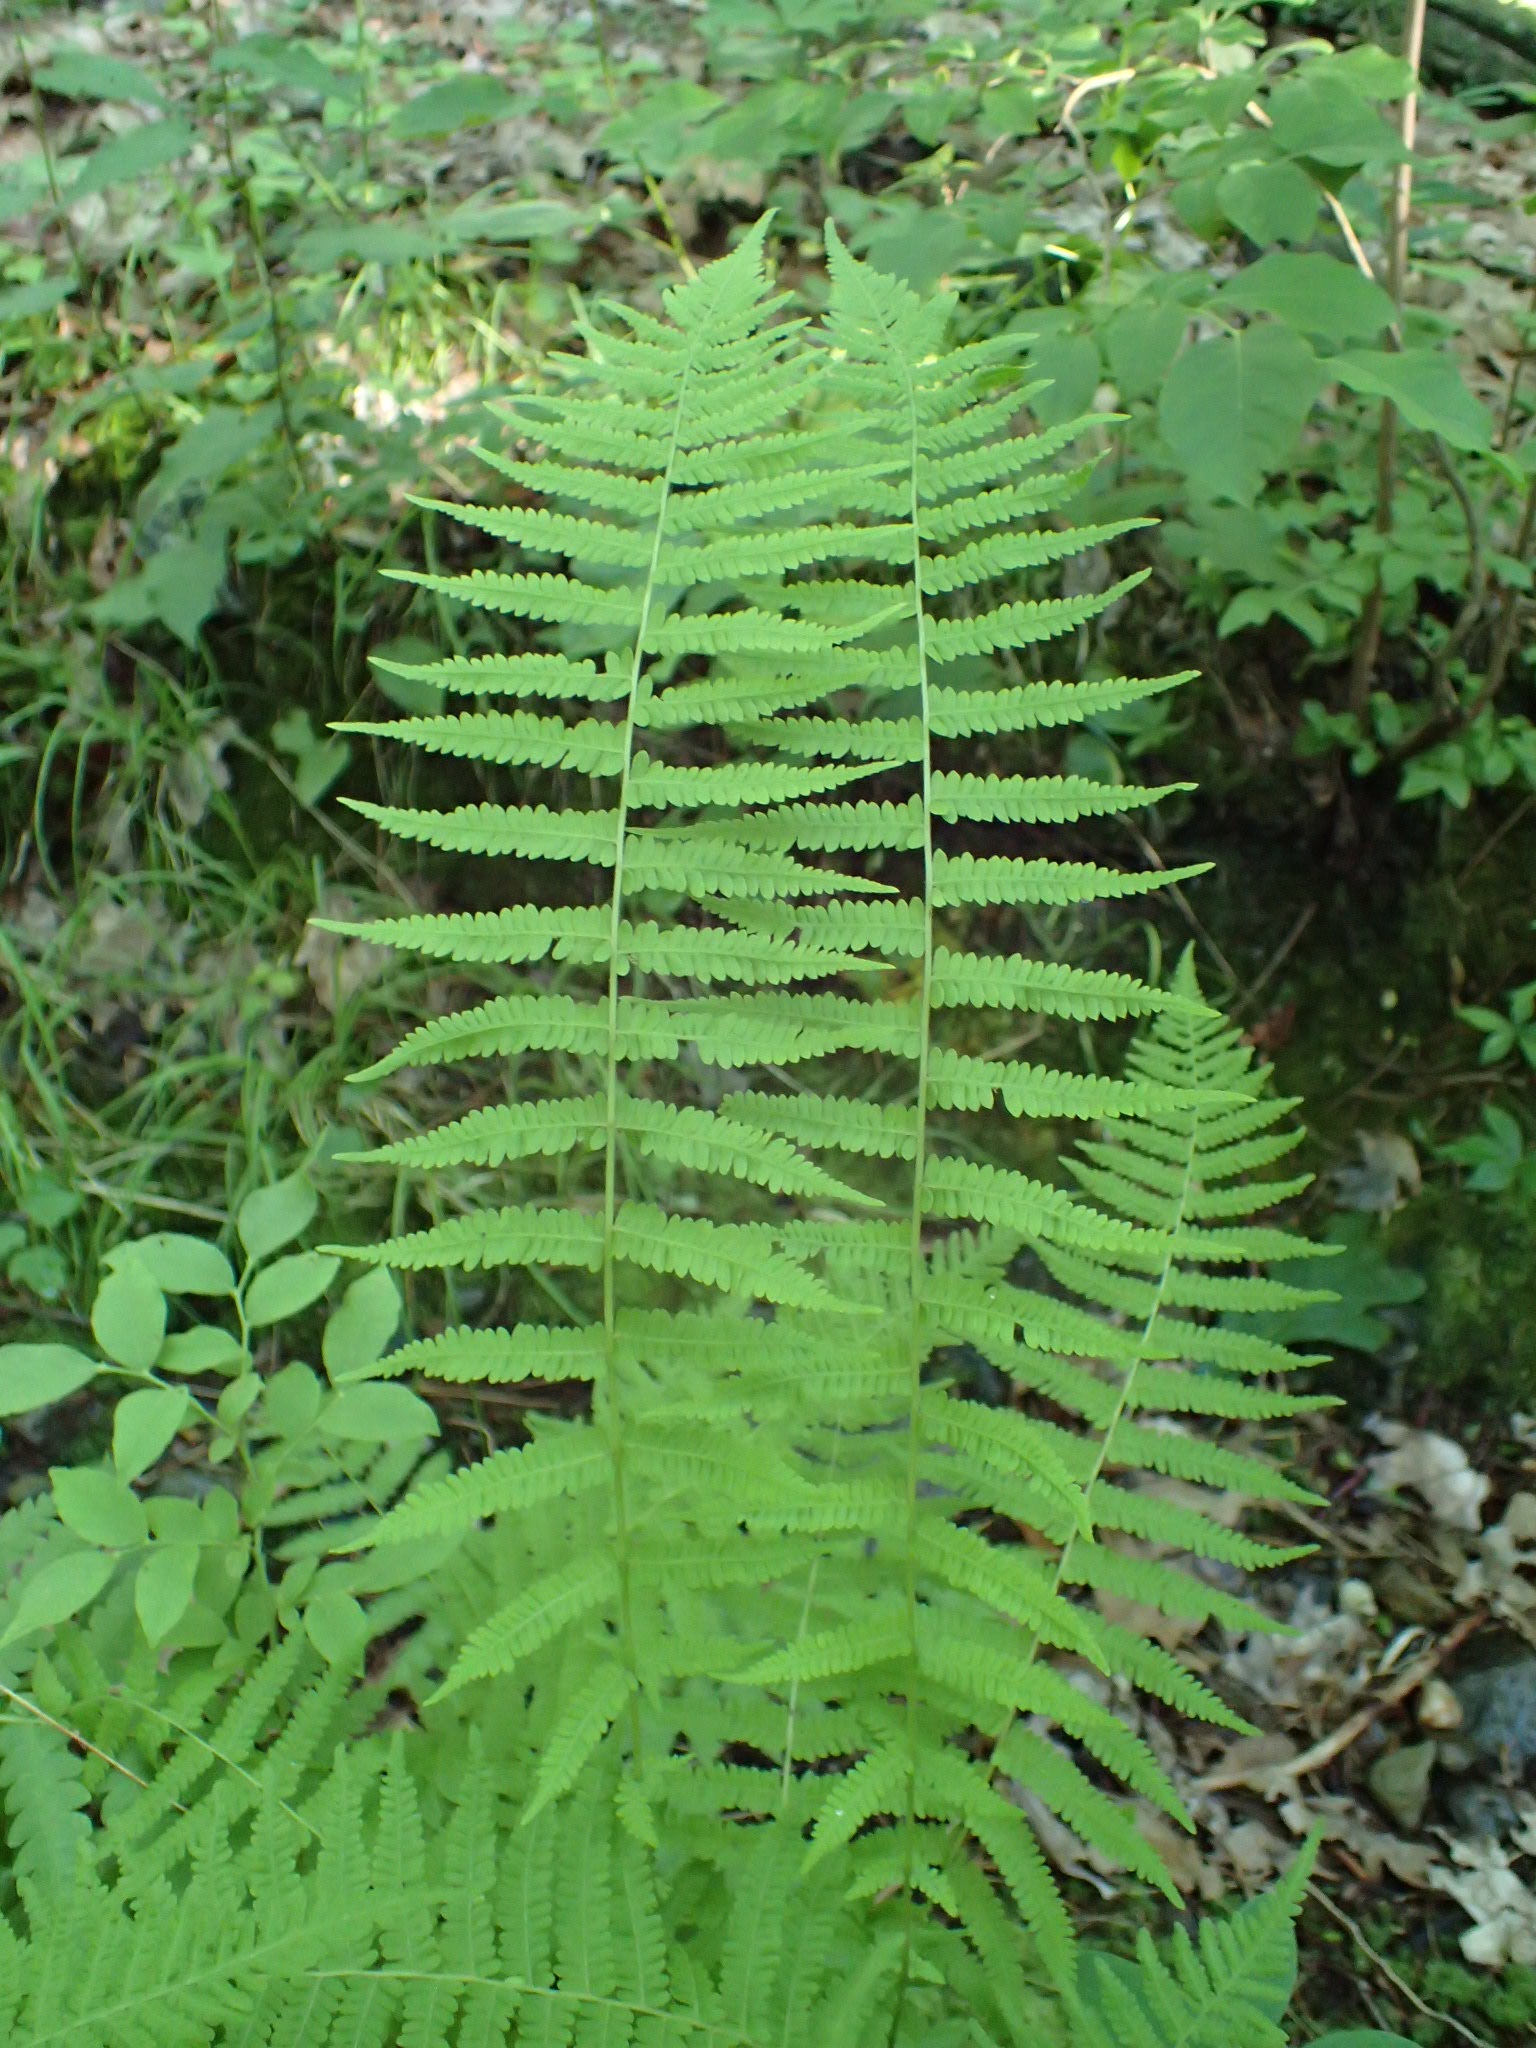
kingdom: Plantae
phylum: Tracheophyta
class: Polypodiopsida
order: Polypodiales
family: Thelypteridaceae
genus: Amauropelta
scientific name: Amauropelta noveboracensis
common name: New york fern
